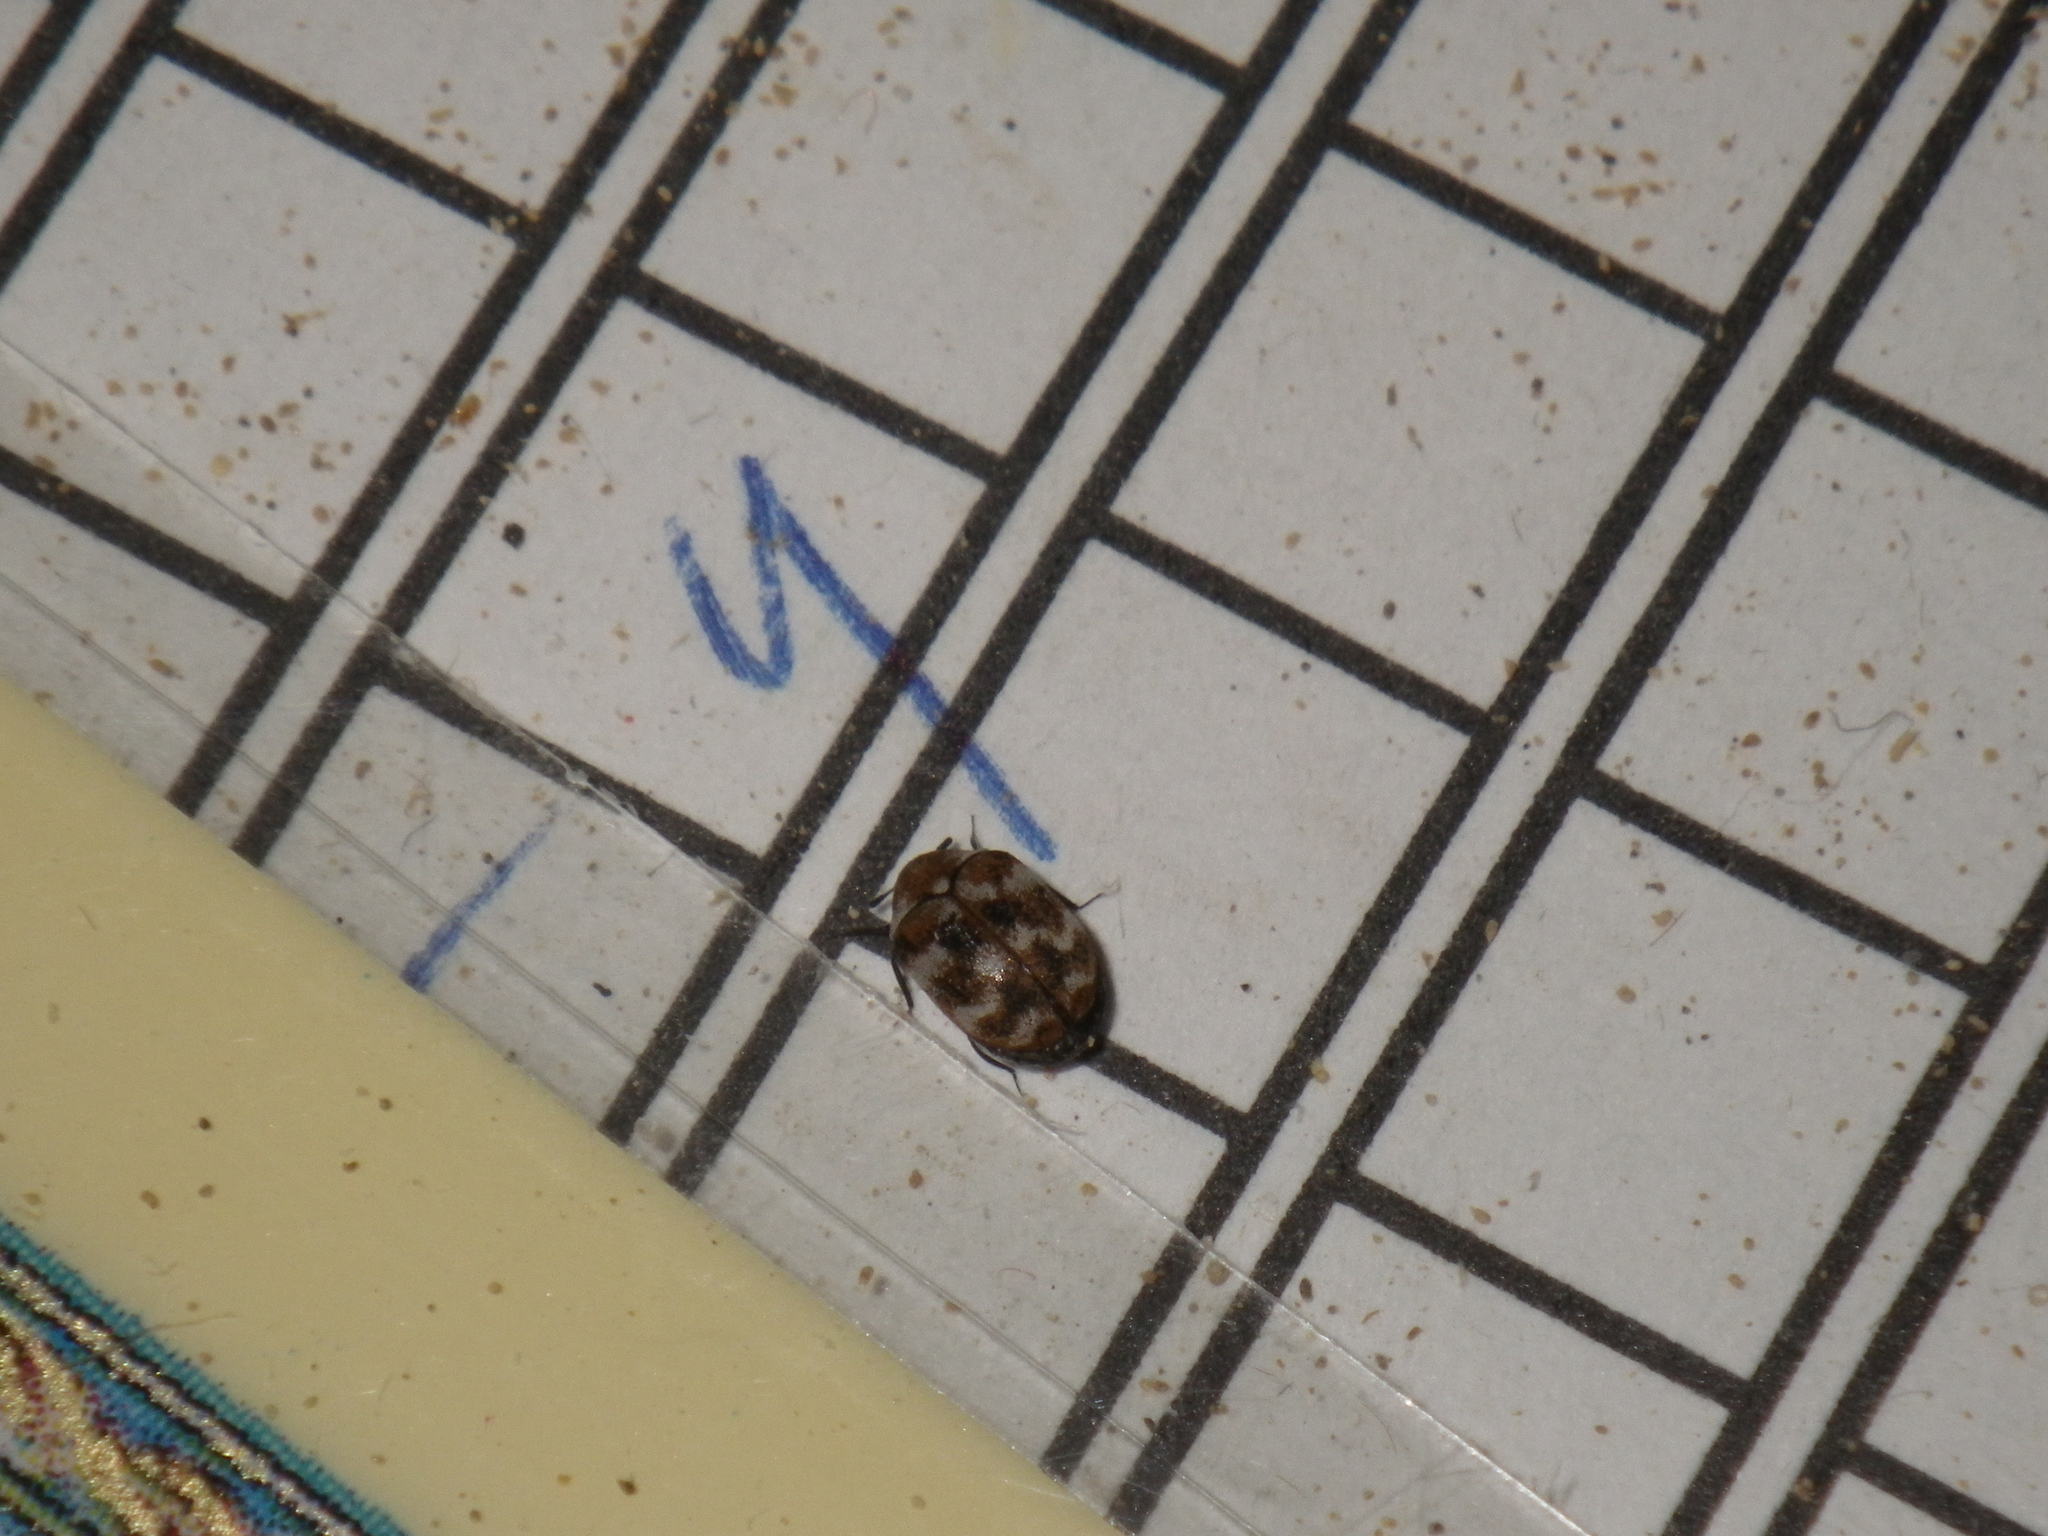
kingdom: Animalia
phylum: Arthropoda
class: Insecta
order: Coleoptera
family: Dermestidae
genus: Anthrenus
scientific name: Anthrenus verbasci
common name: Varied carpet beetle
